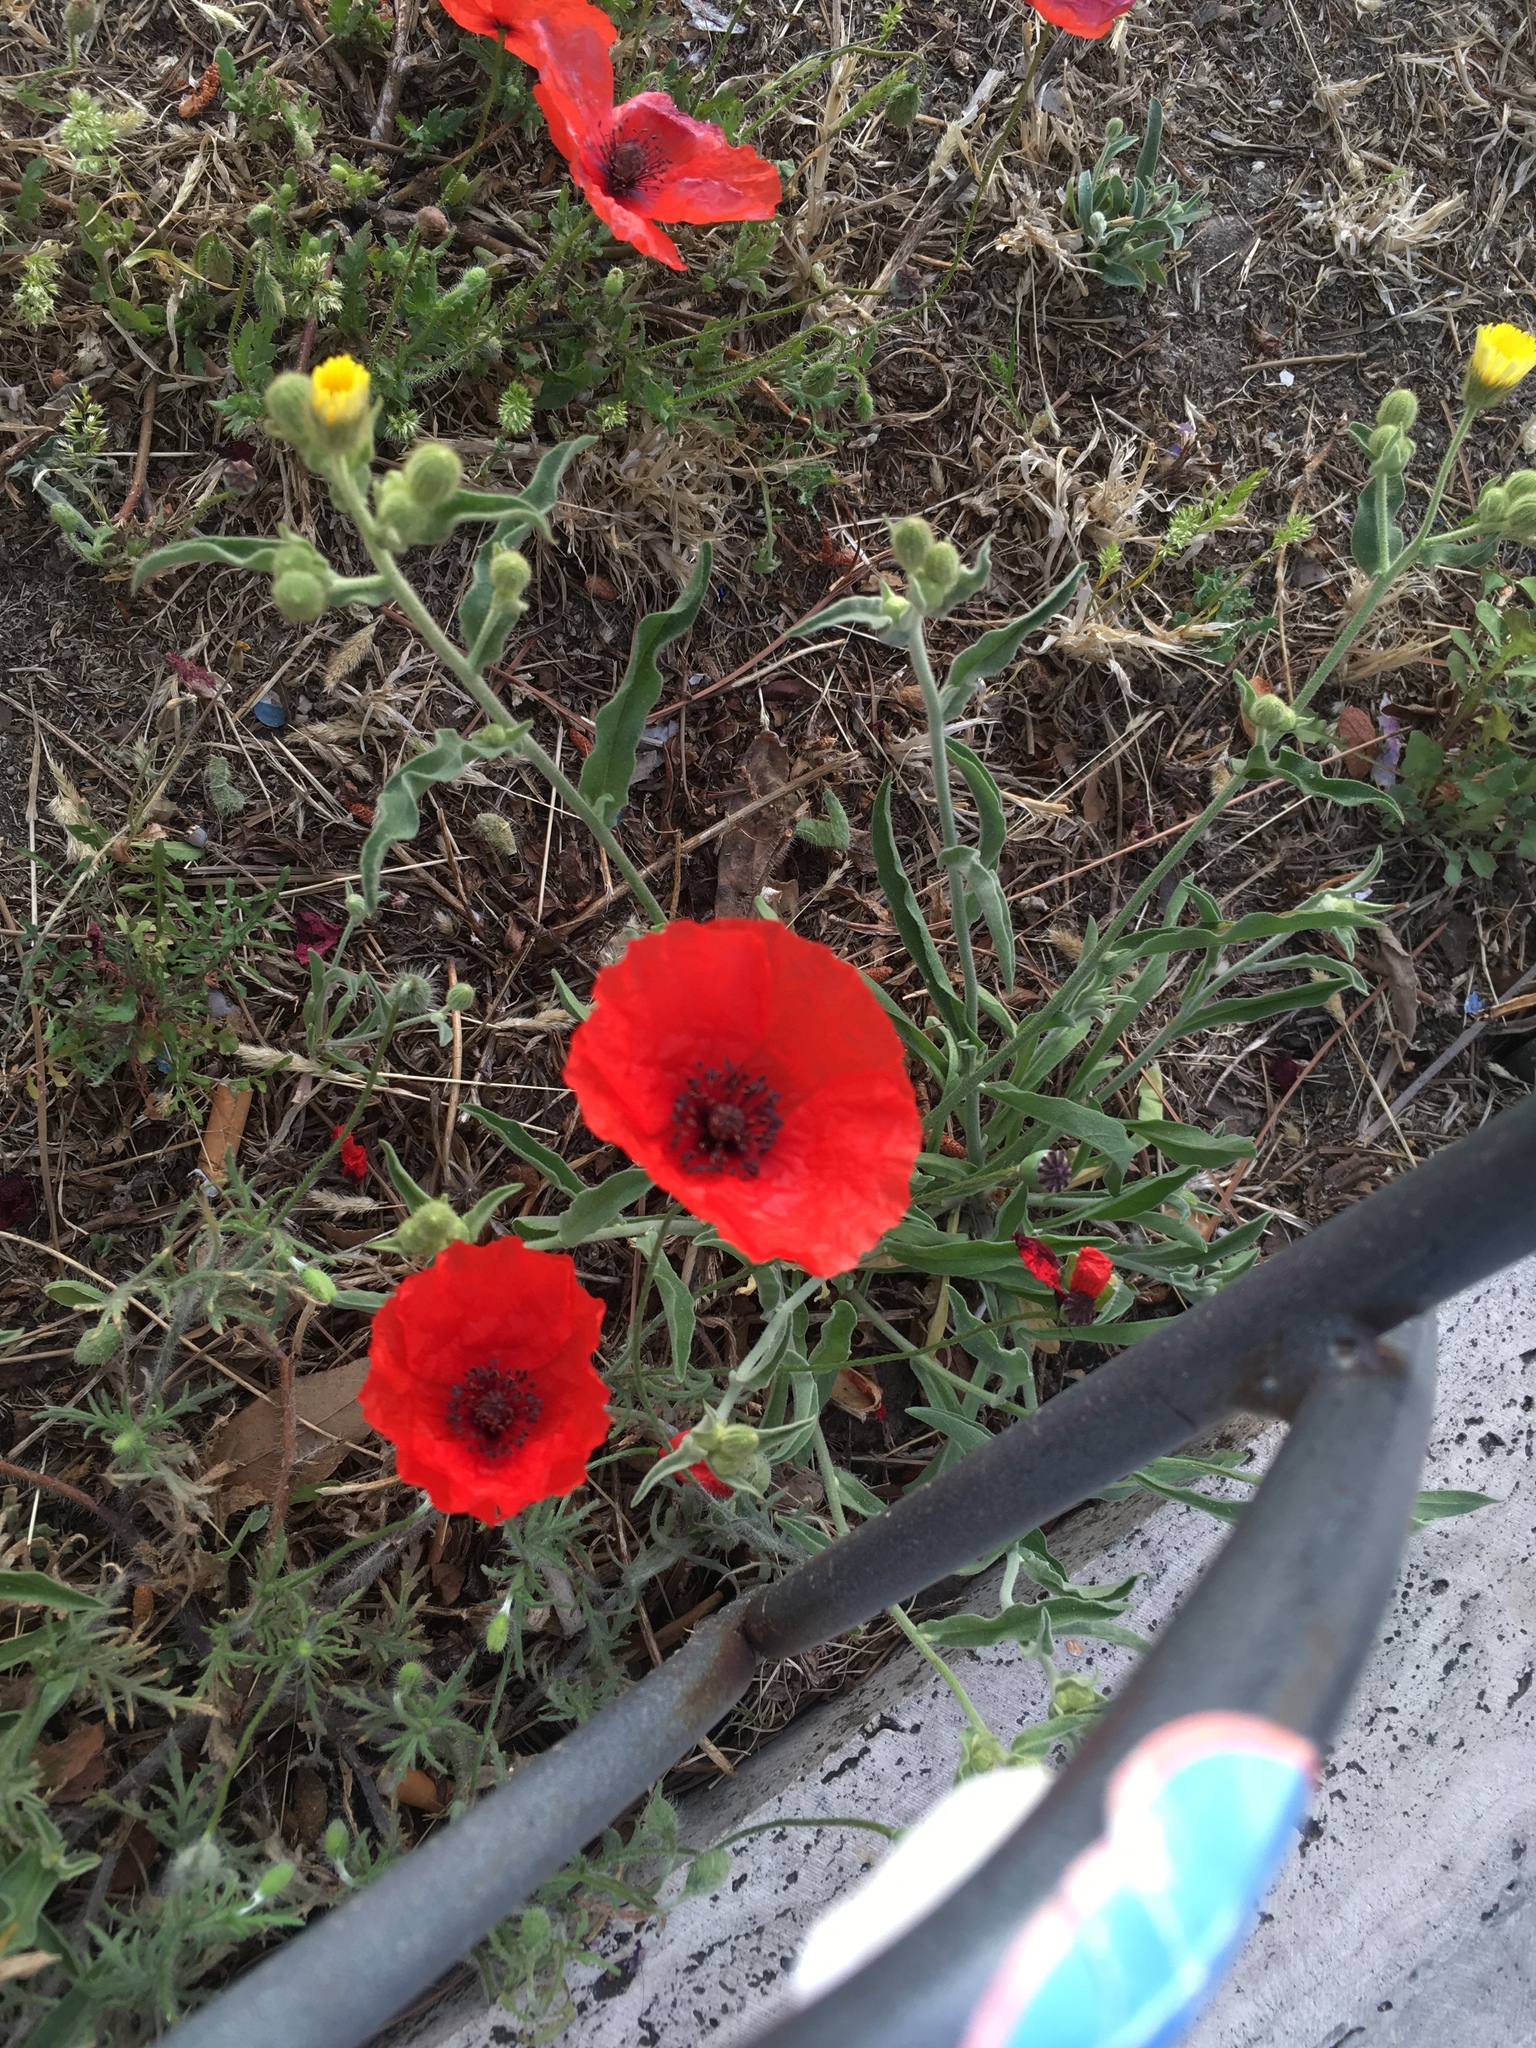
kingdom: Plantae
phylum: Tracheophyta
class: Magnoliopsida
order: Ranunculales
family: Papaveraceae
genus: Papaver
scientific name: Papaver rhoeas
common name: Corn poppy
